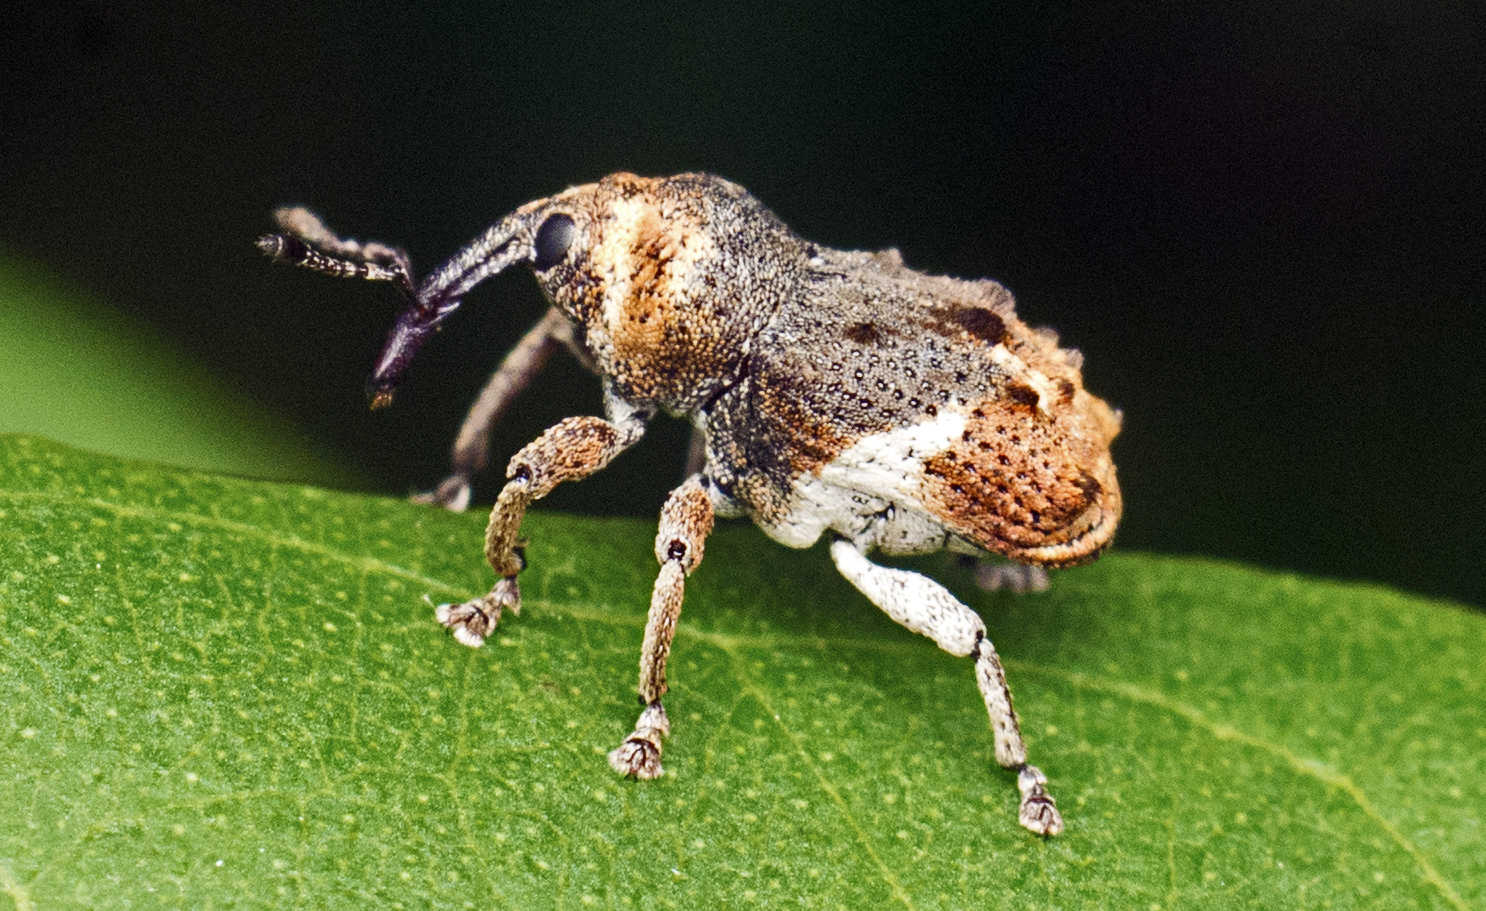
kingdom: Animalia
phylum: Arthropoda
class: Insecta
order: Coleoptera
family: Curculionidae
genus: Myllorhinus
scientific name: Myllorhinus
